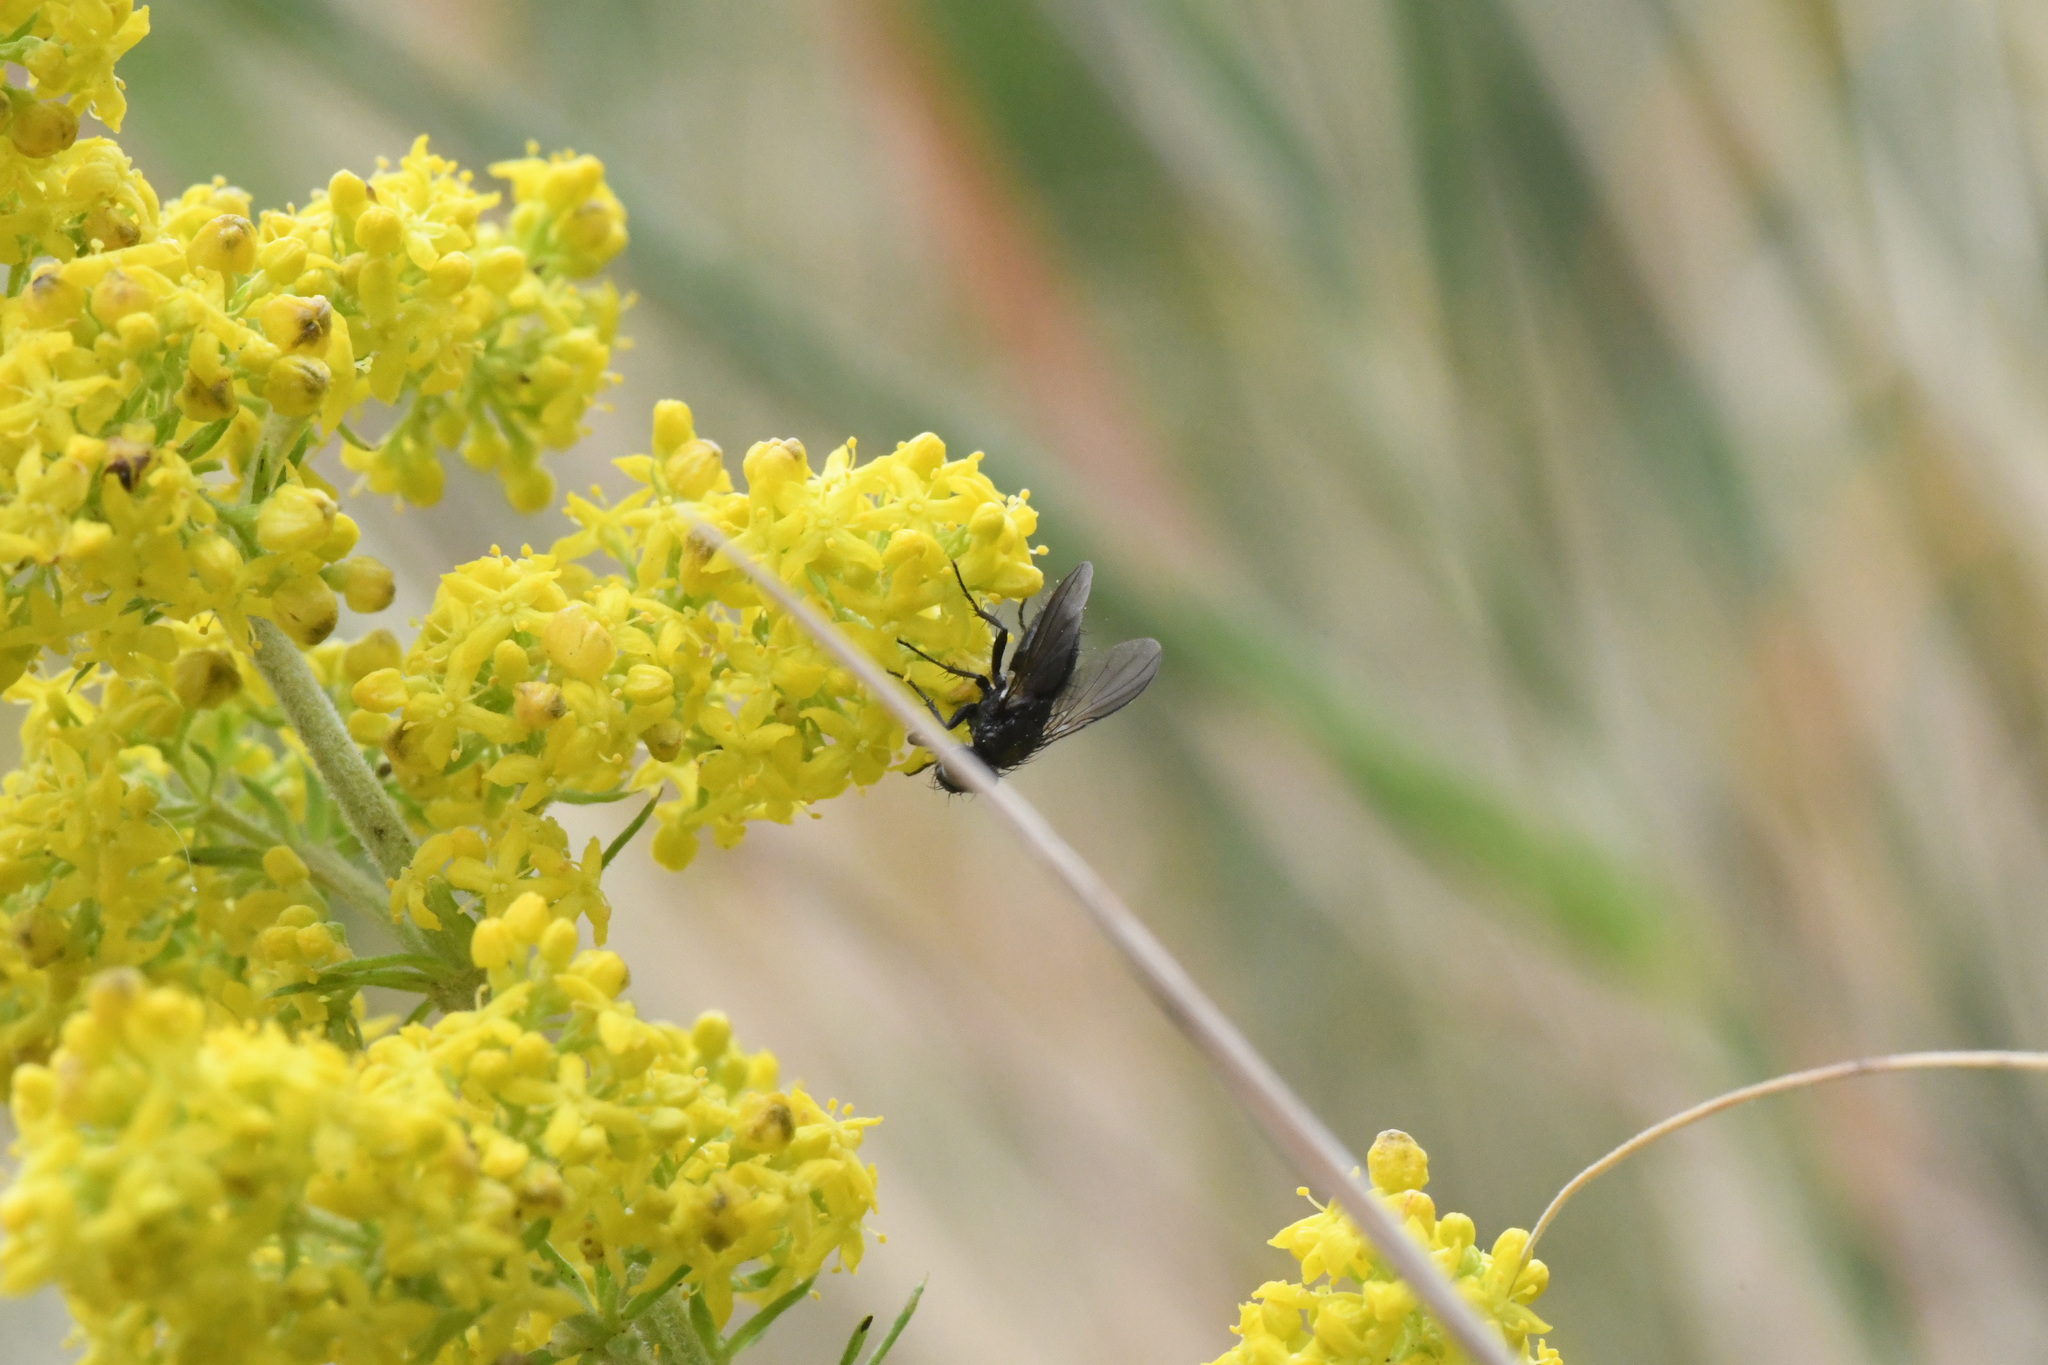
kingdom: Animalia
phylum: Arthropoda
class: Insecta
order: Diptera
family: Calliphoridae
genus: Rhinophora
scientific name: Rhinophora lepida
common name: Pouting woodlouse-fly
